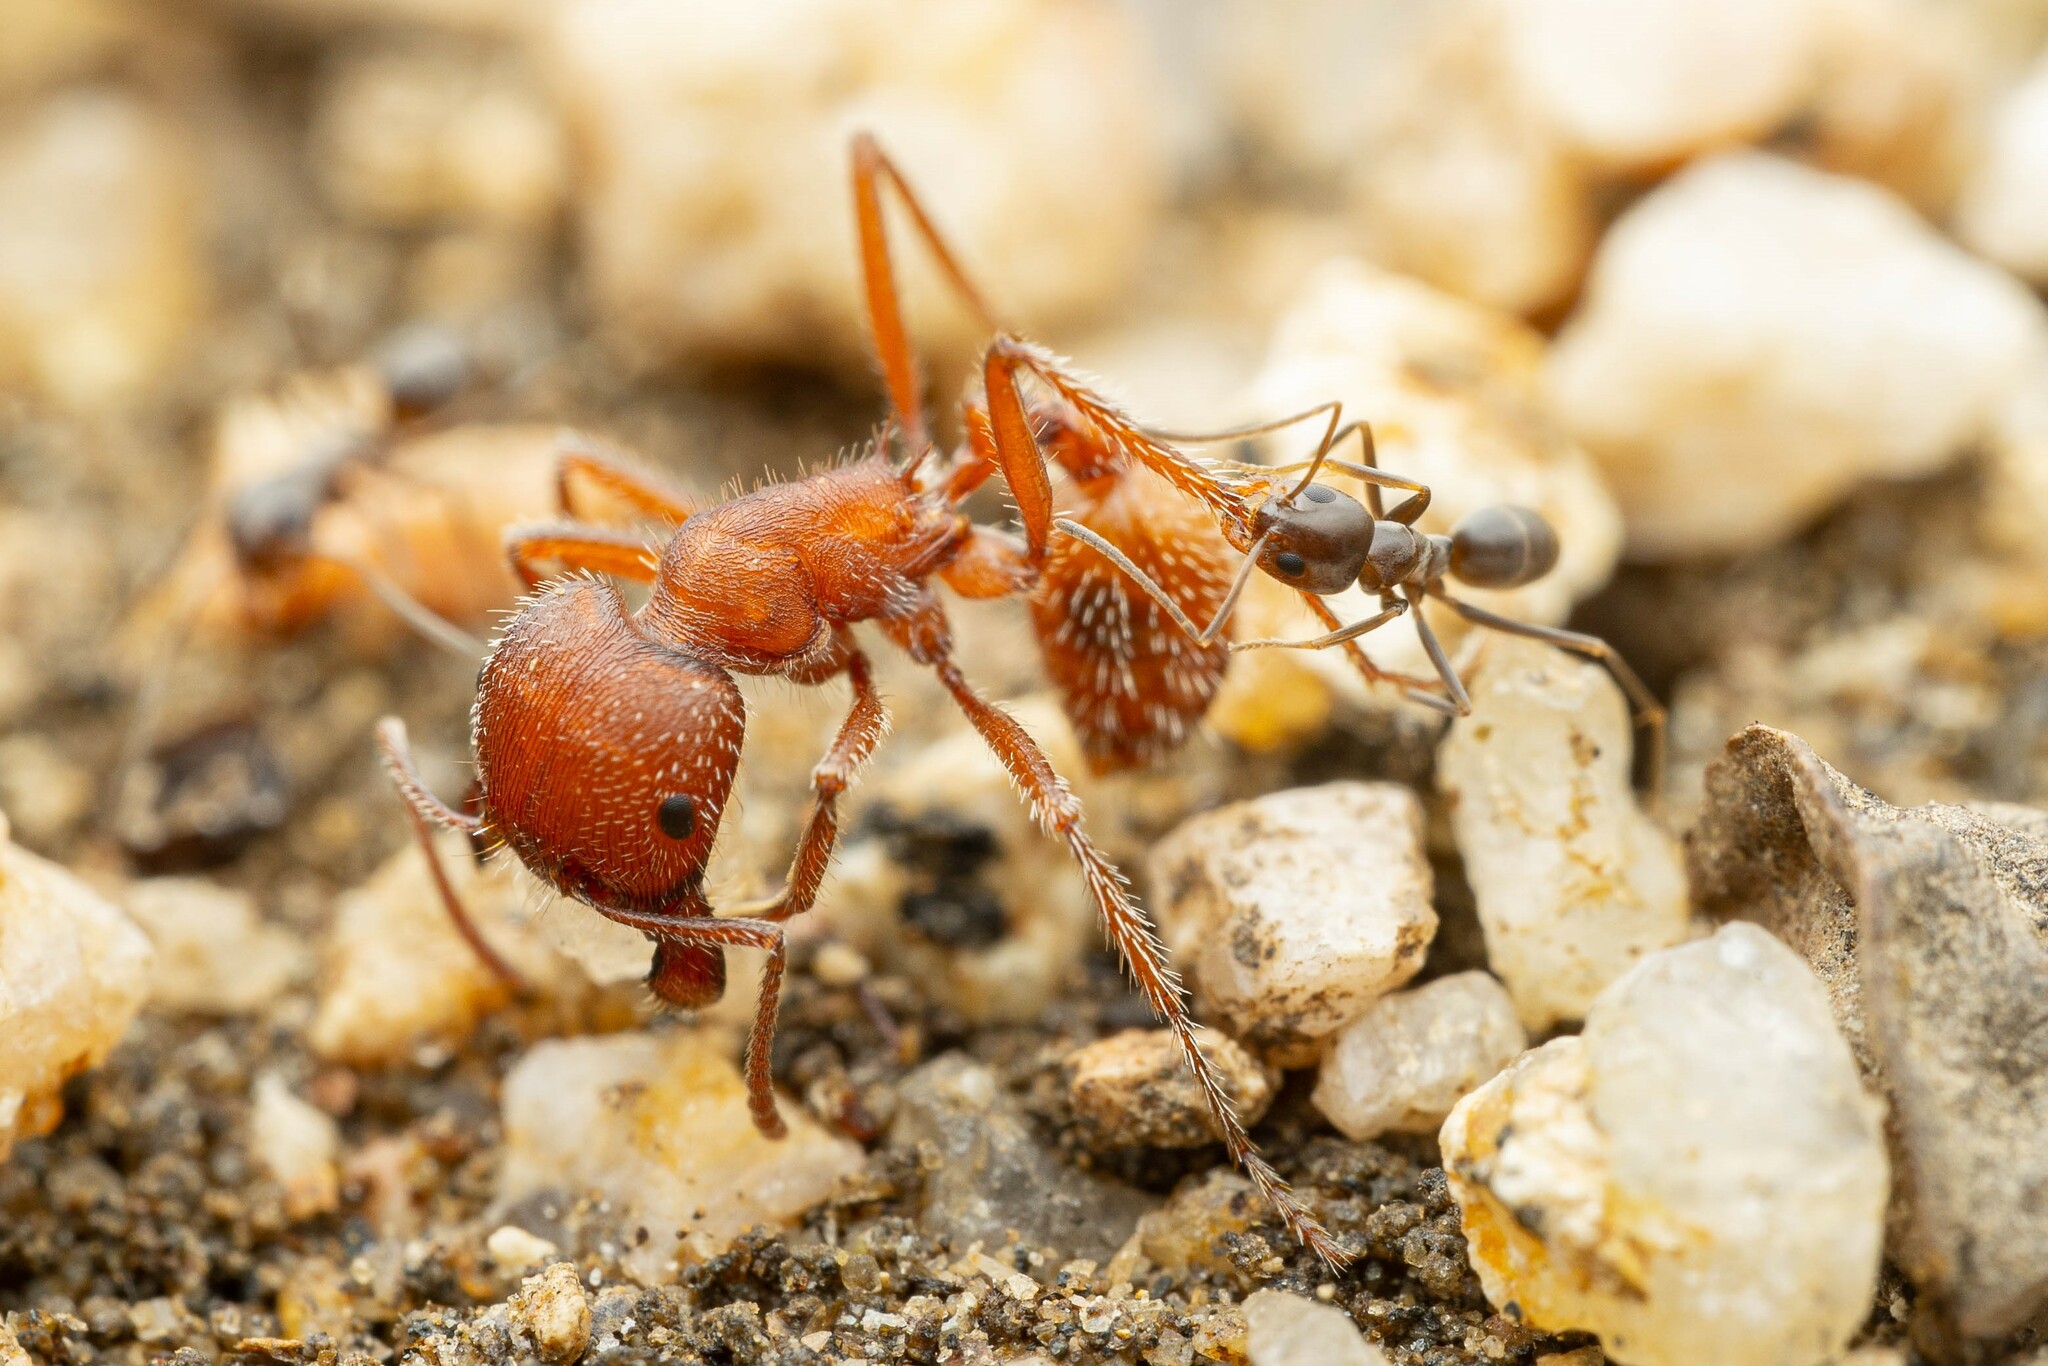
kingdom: Animalia
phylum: Arthropoda
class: Insecta
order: Hymenoptera
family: Formicidae
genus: Dorymyrmex
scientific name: Dorymyrmex insanus
